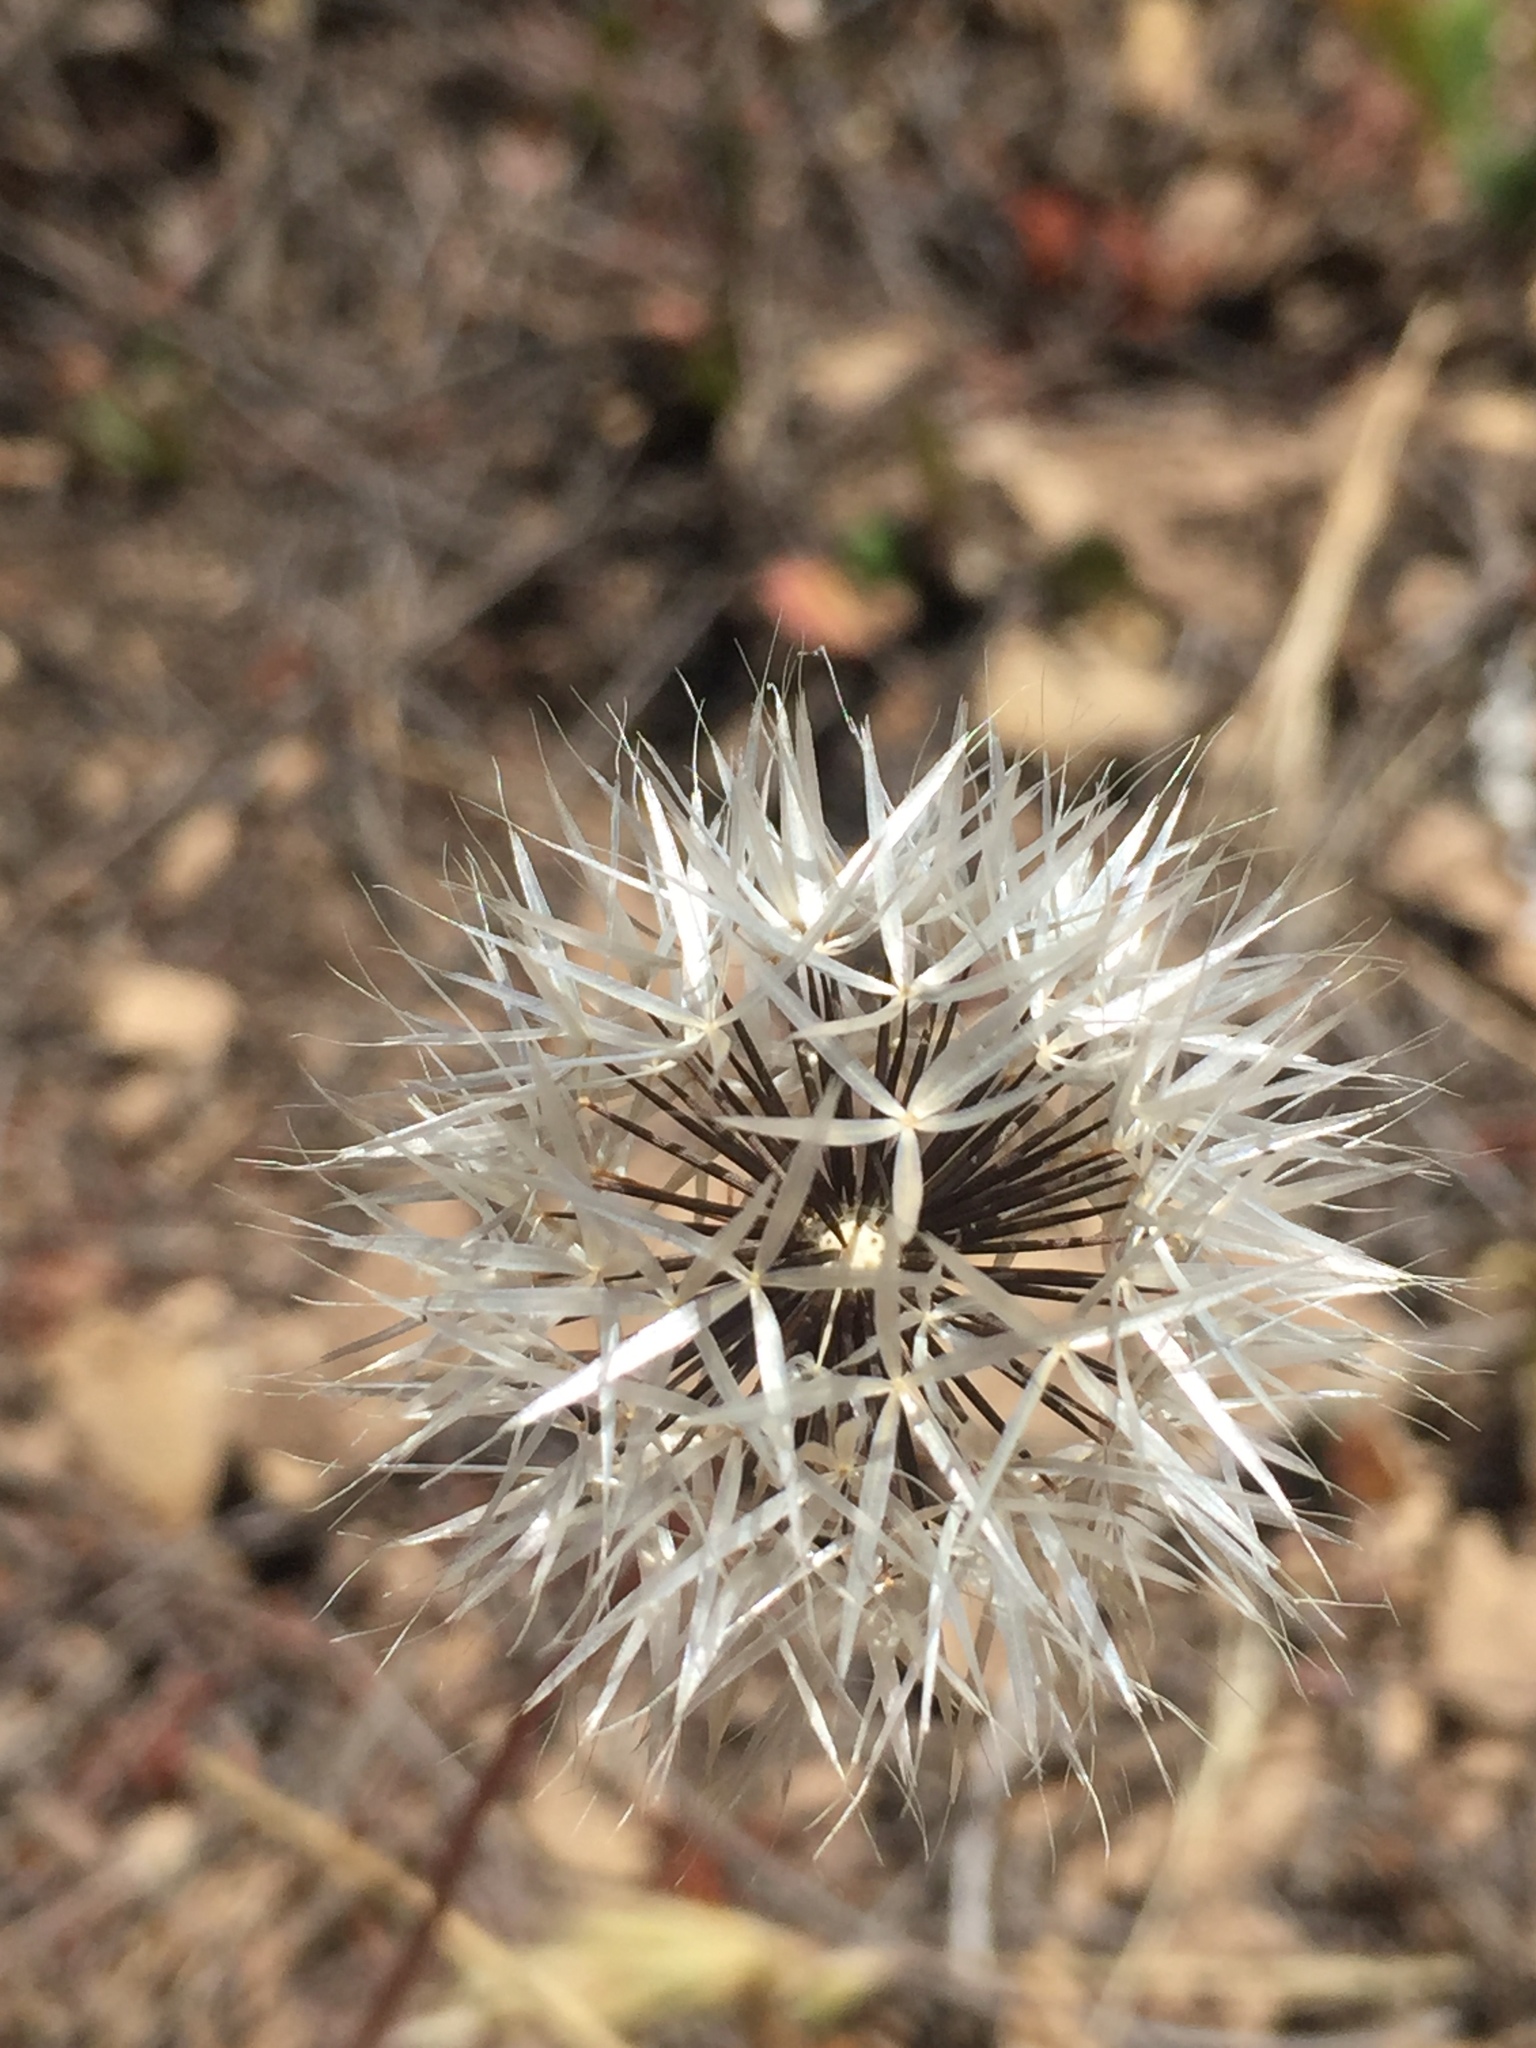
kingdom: Plantae
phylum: Tracheophyta
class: Magnoliopsida
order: Asterales
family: Asteraceae
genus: Microseris
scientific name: Microseris lindleyi
